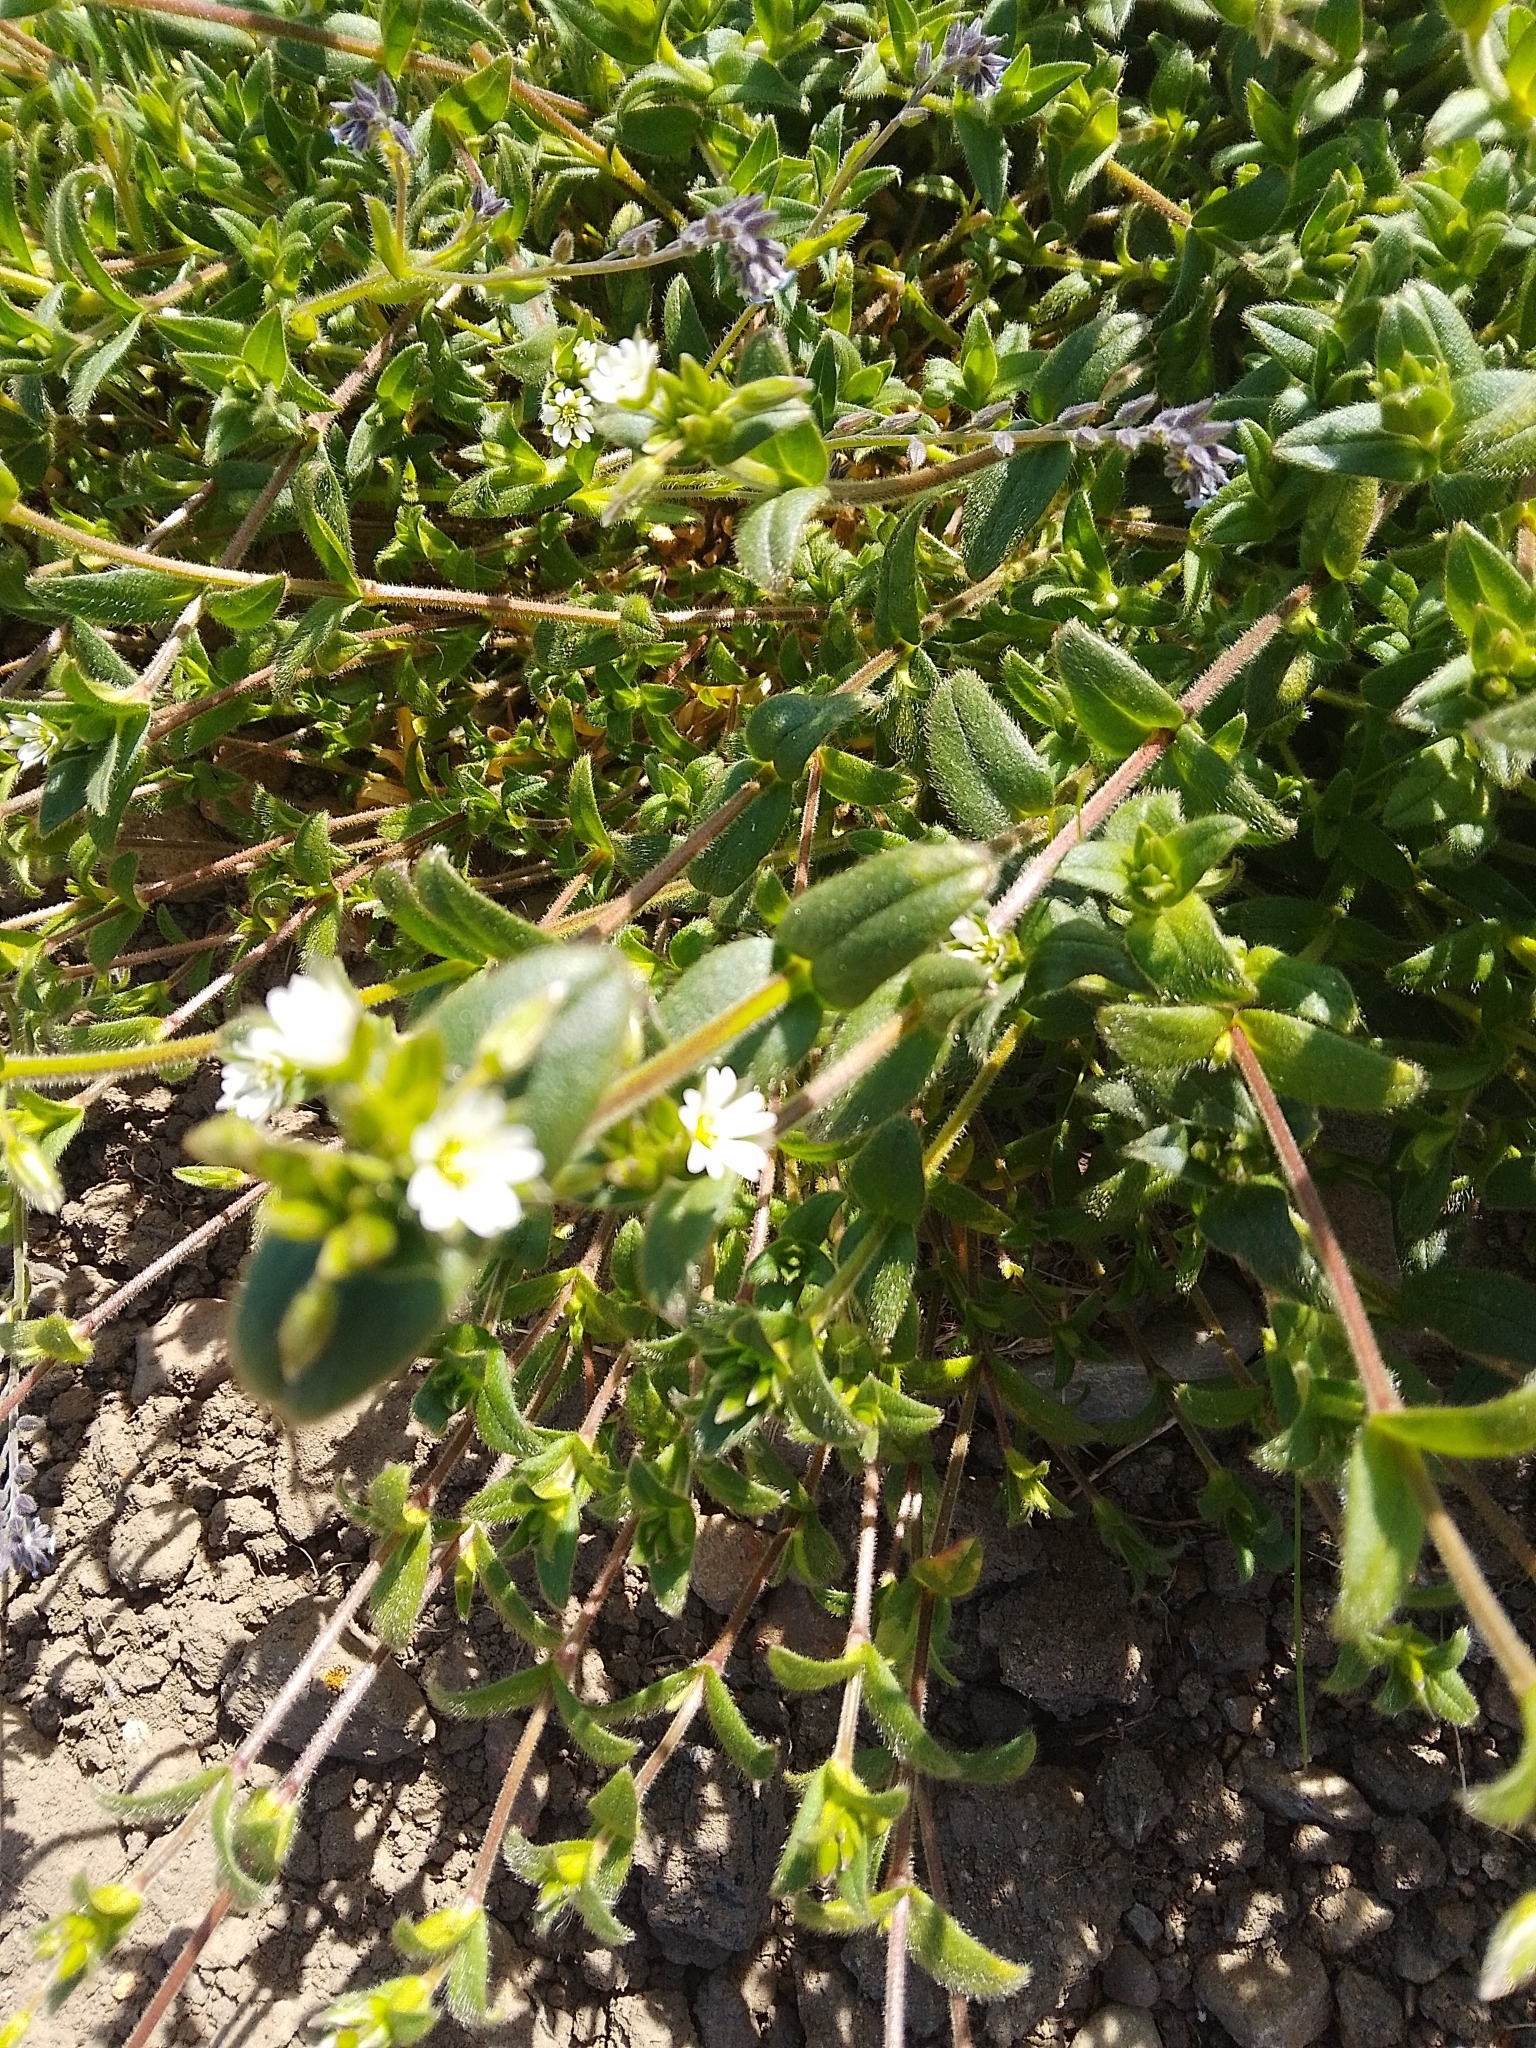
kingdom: Plantae
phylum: Tracheophyta
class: Magnoliopsida
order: Caryophyllales
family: Caryophyllaceae
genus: Cerastium
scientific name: Cerastium fontanum
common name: Common mouse-ear
